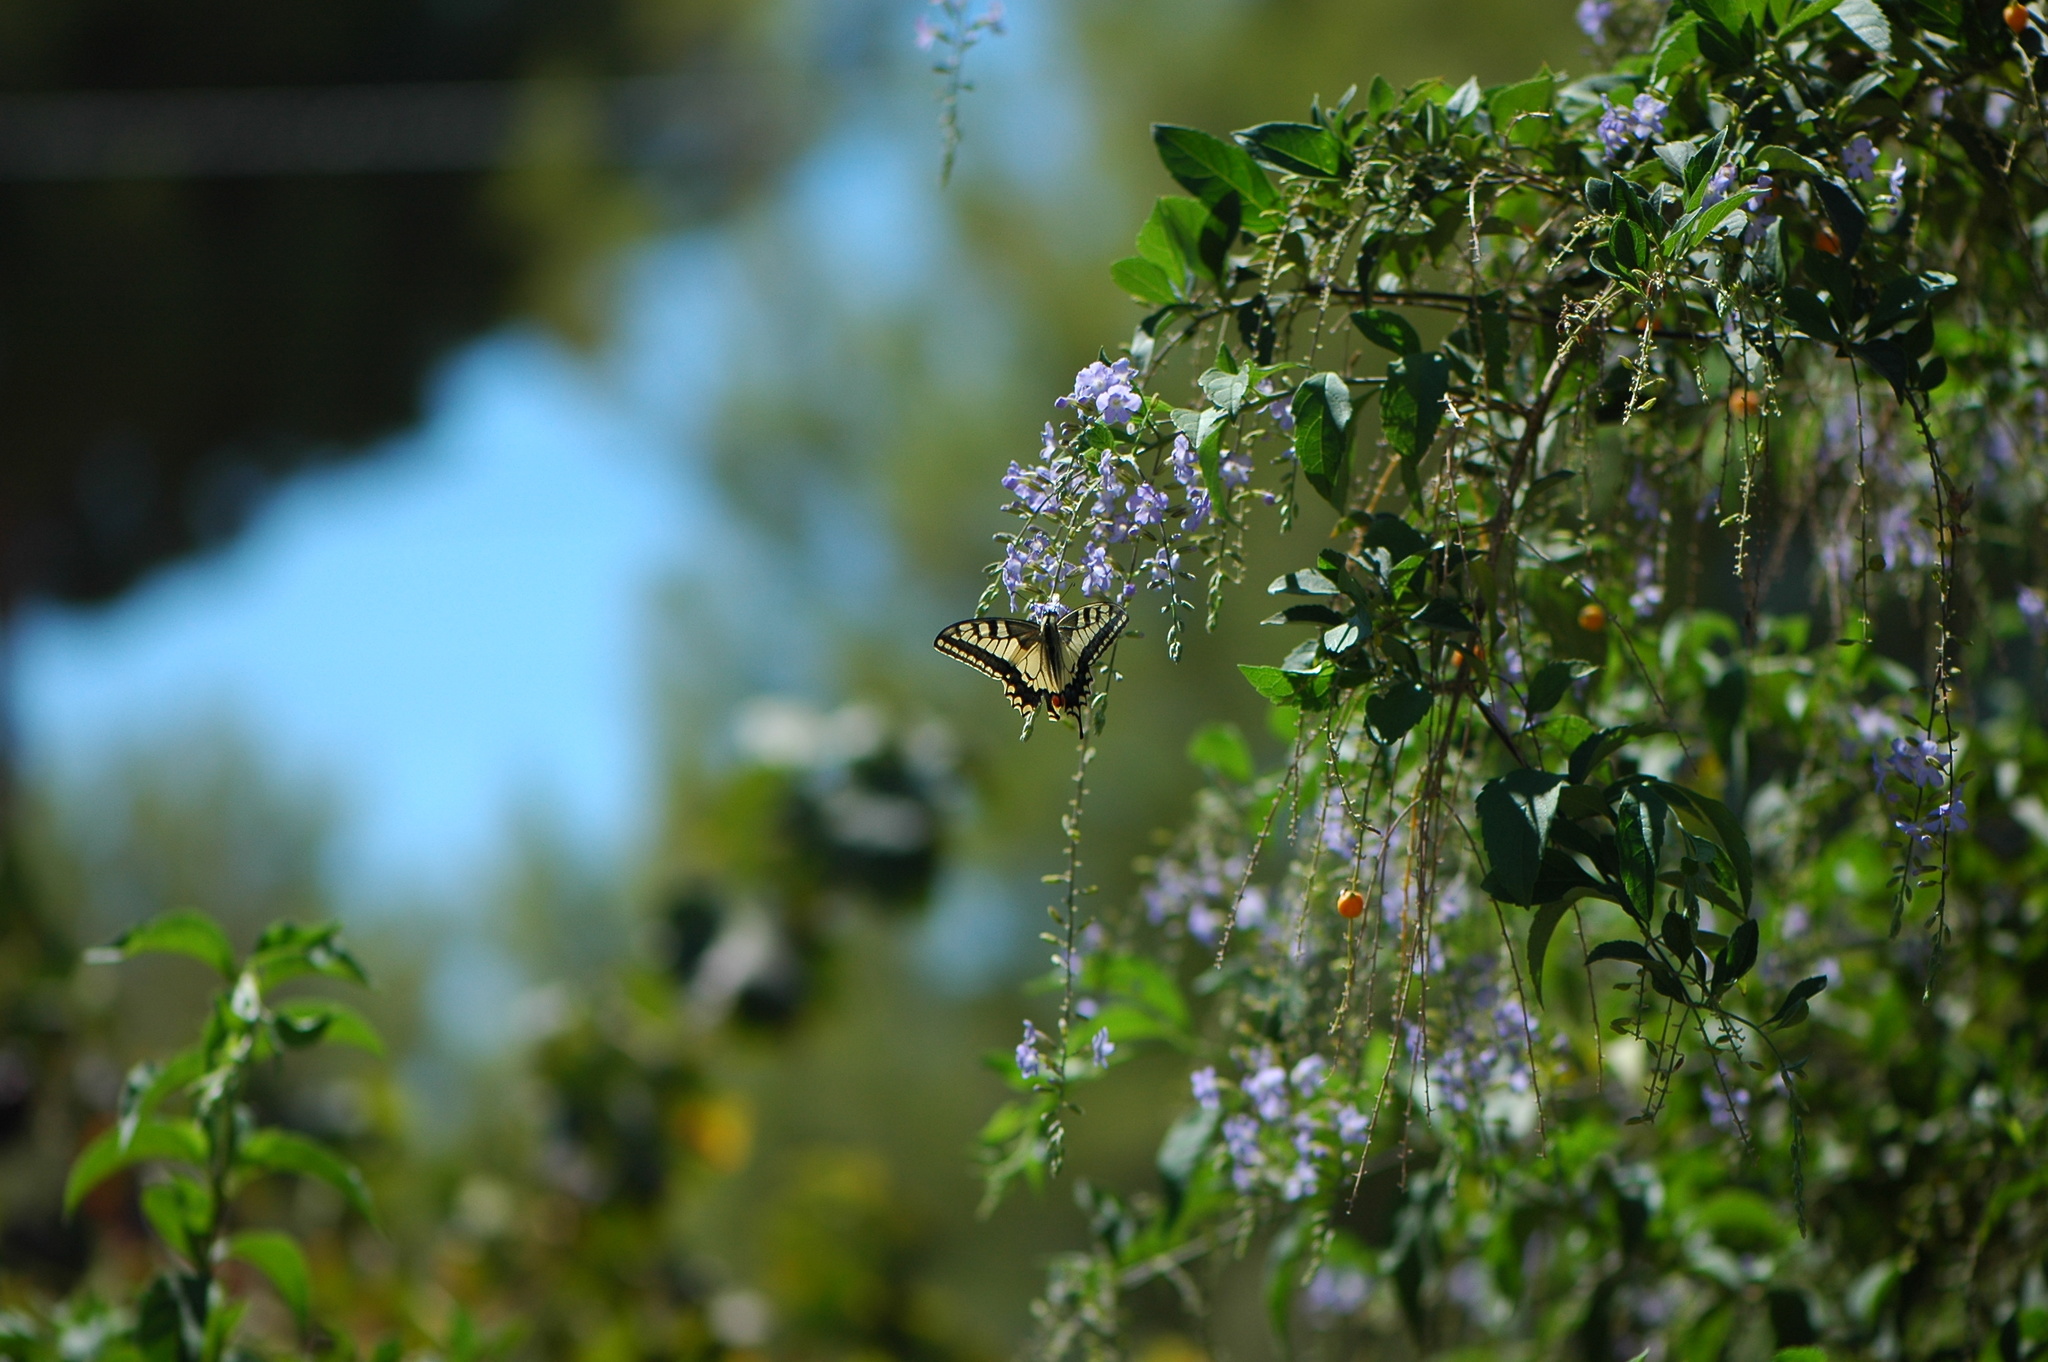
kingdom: Animalia
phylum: Arthropoda
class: Insecta
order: Lepidoptera
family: Papilionidae
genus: Papilio
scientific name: Papilio machaon
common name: Swallowtail
